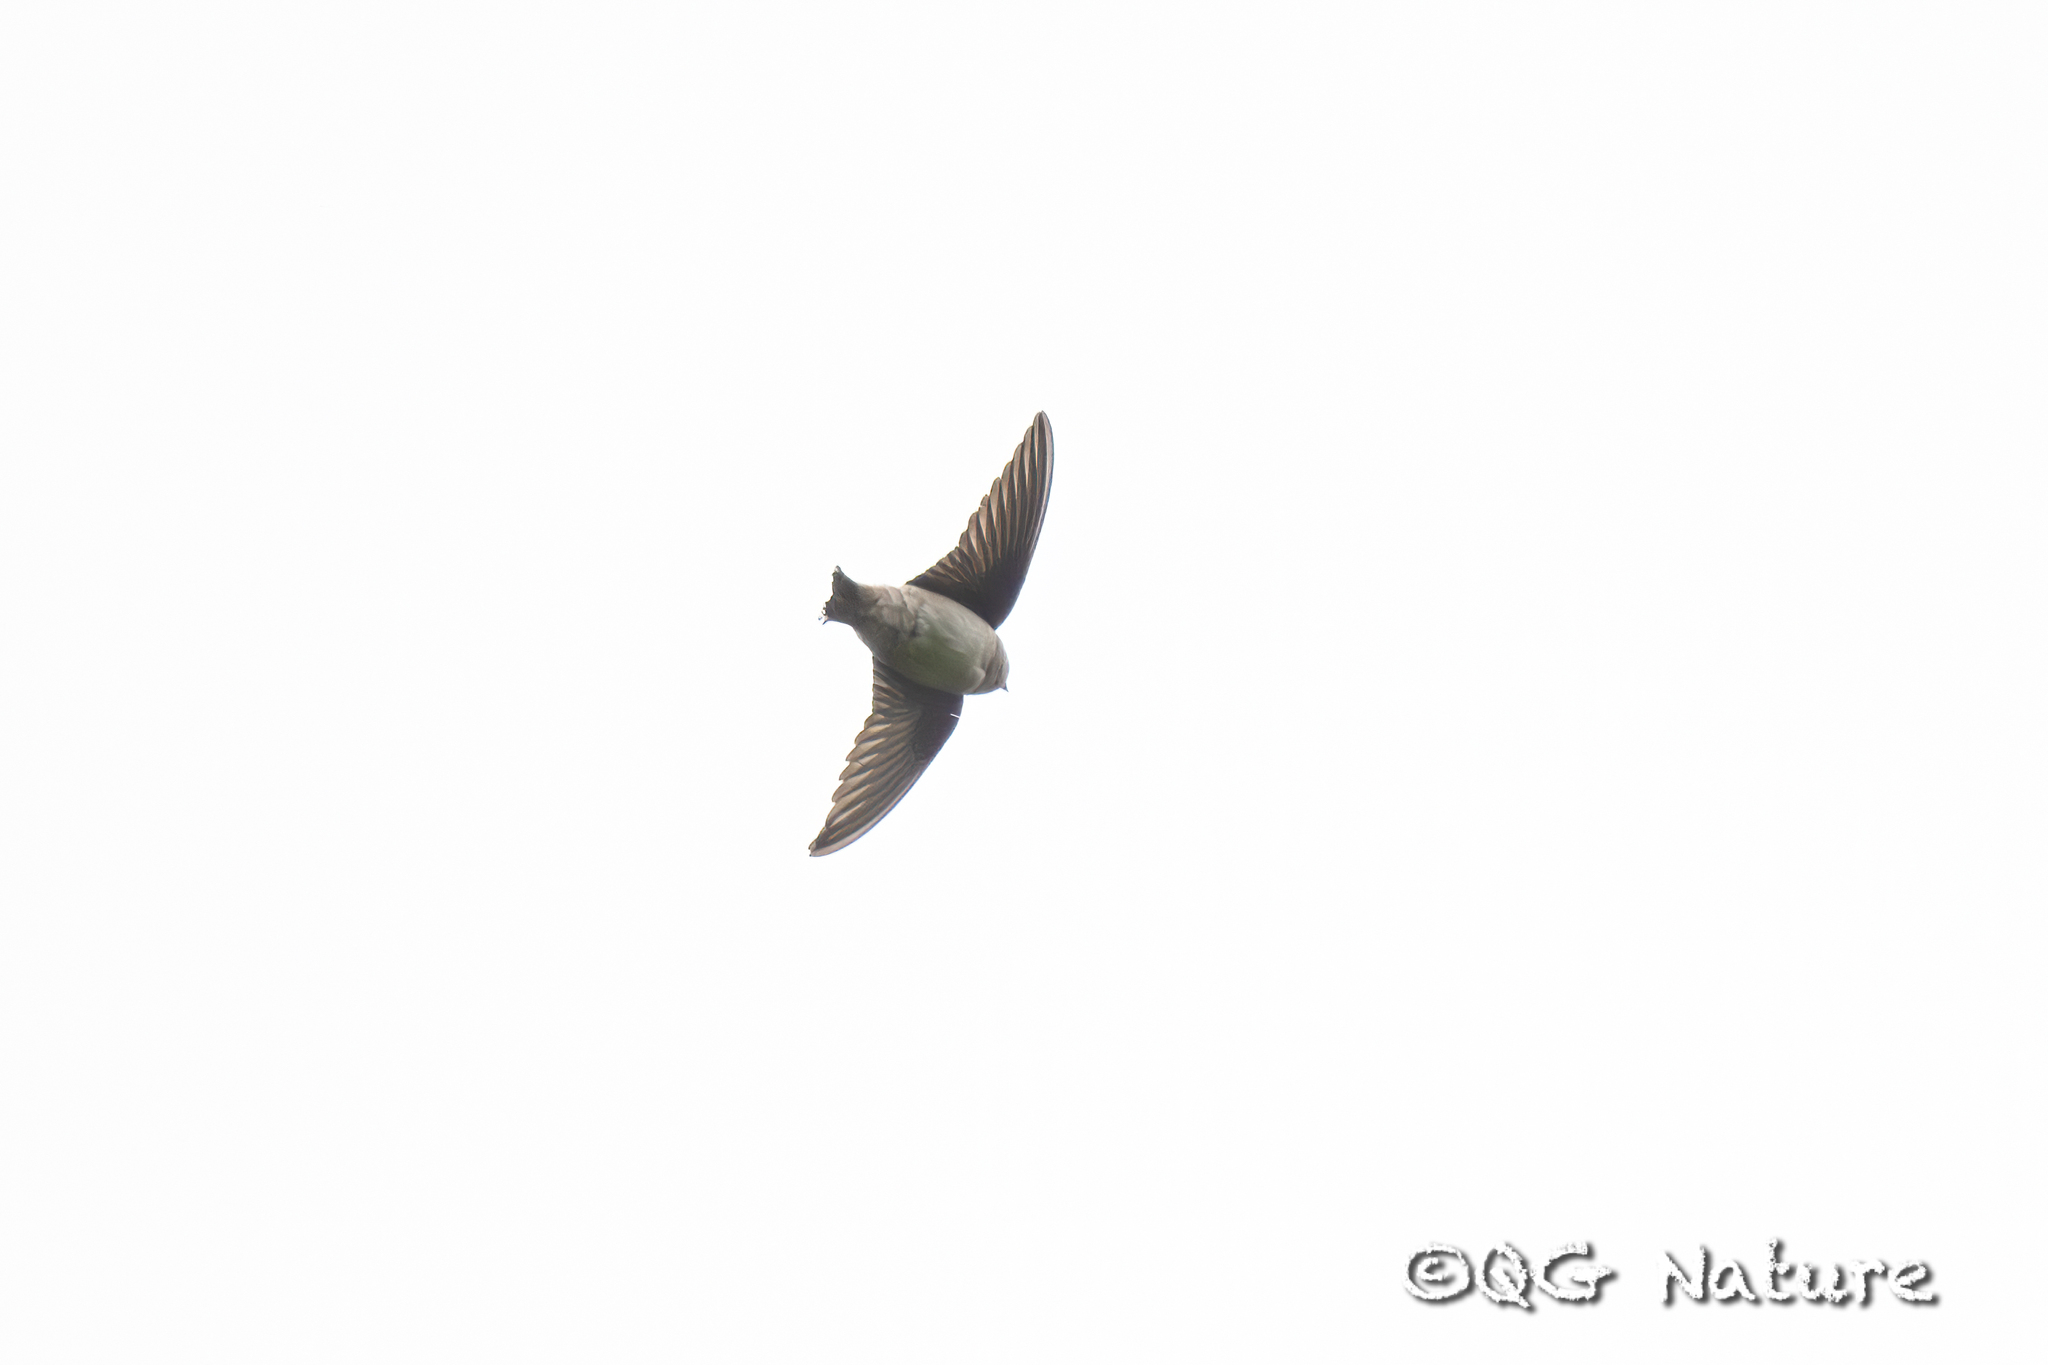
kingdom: Animalia
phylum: Chordata
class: Aves
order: Passeriformes
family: Hirundinidae
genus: Ptyonoprogne
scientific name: Ptyonoprogne rupestris
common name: Eurasian crag martin
